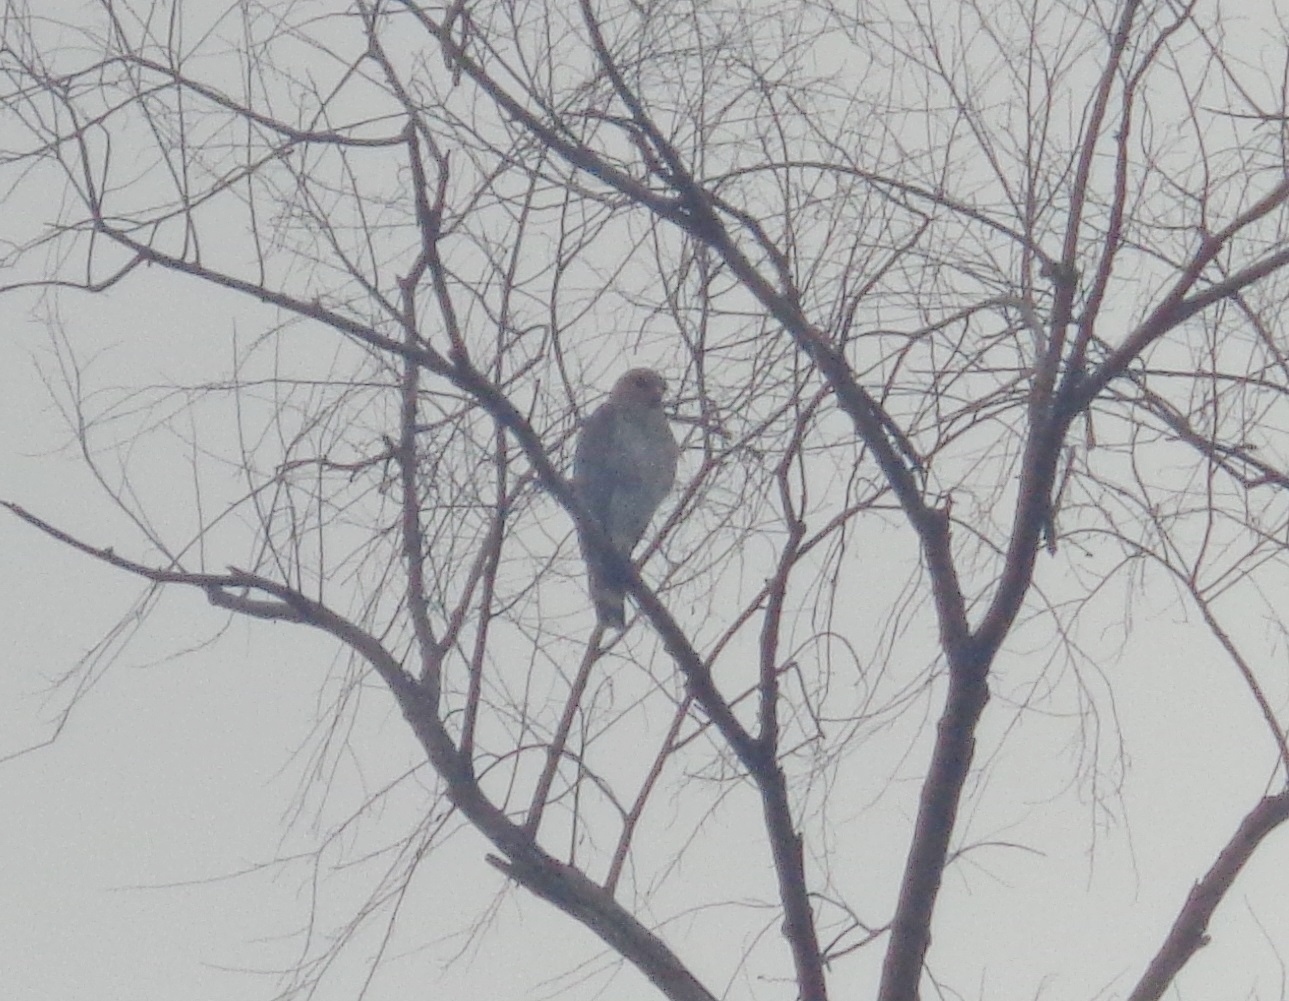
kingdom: Animalia
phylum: Chordata
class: Aves
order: Accipitriformes
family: Accipitridae
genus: Buteo
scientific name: Buteo nitidus
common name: Grey-lined hawk
